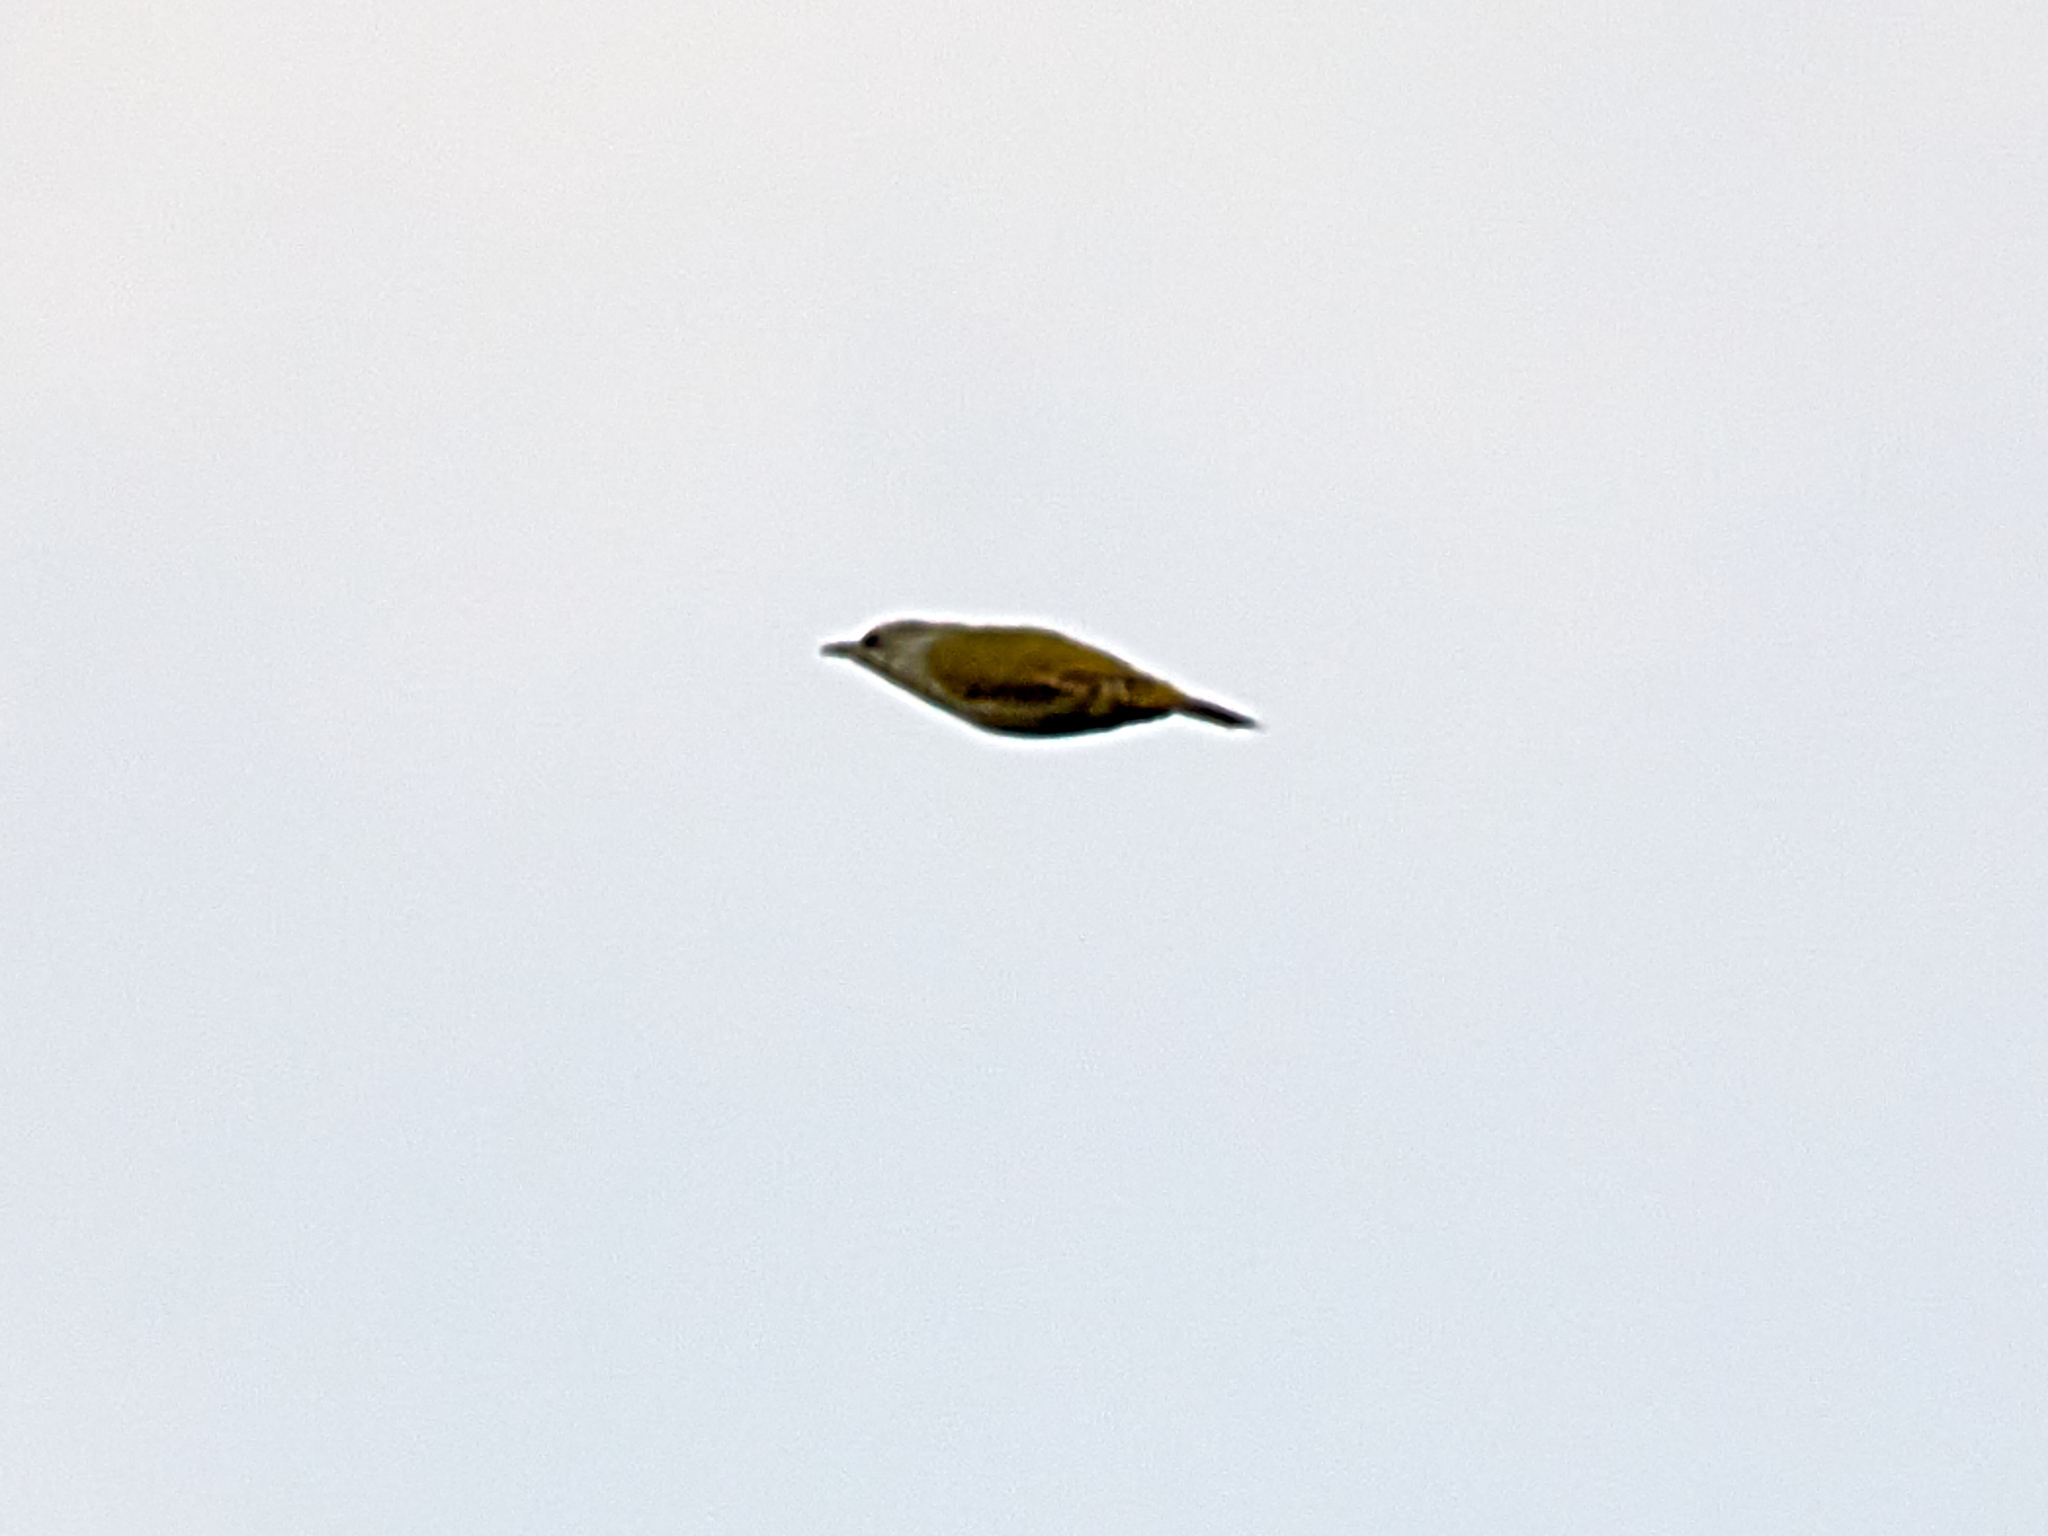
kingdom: Animalia
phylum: Chordata
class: Aves
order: Piciformes
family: Picidae
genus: Picus
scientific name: Picus canus
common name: Grey-headed woodpecker
